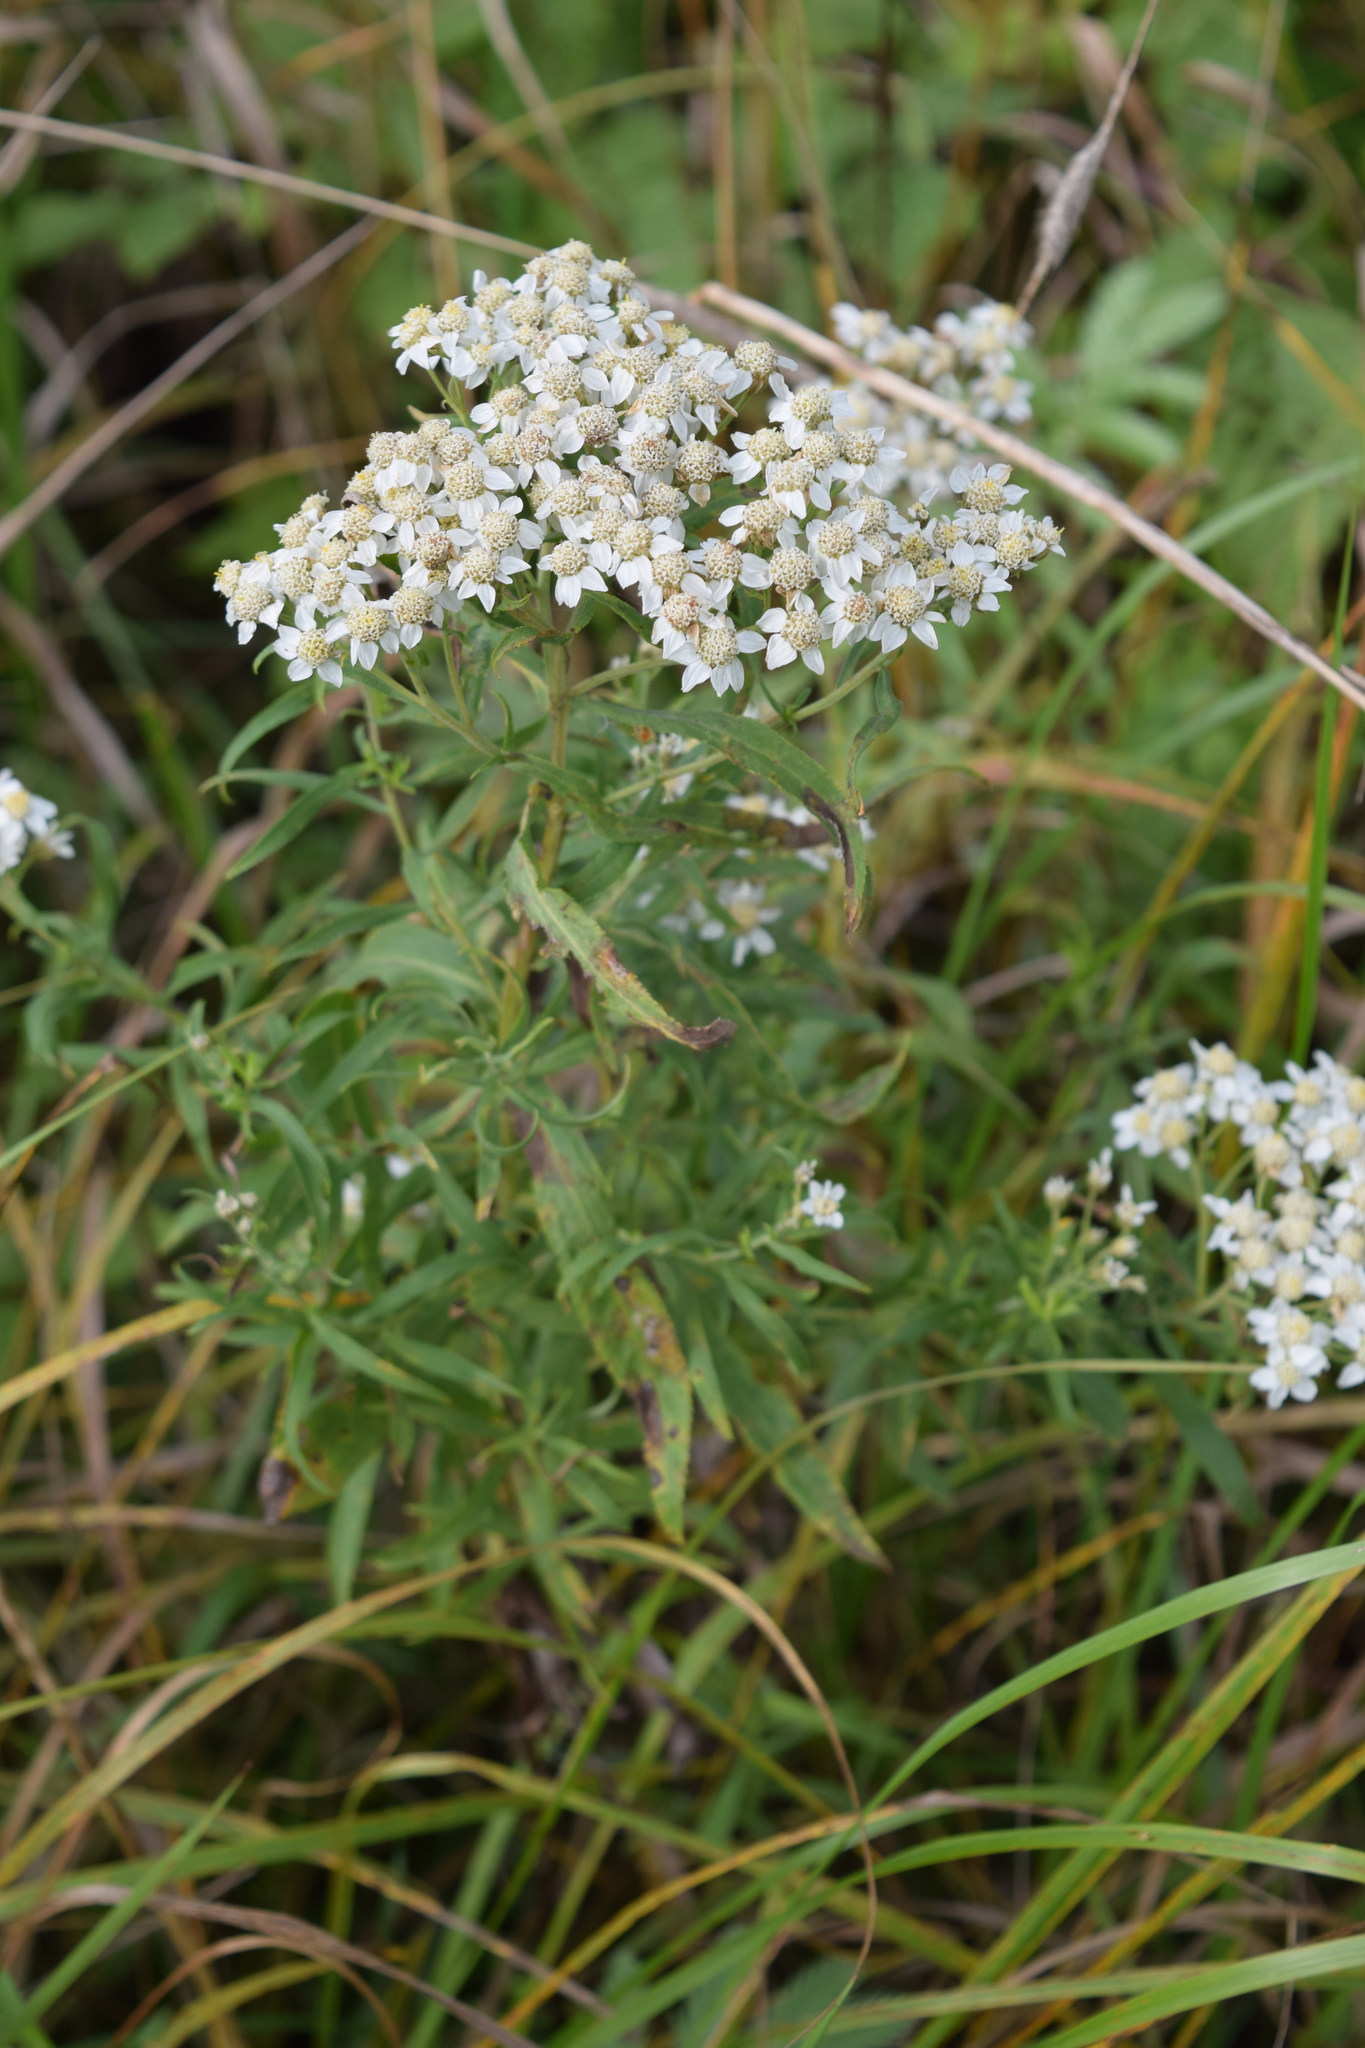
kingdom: Plantae
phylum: Tracheophyta
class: Magnoliopsida
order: Asterales
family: Asteraceae
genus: Achillea
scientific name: Achillea salicifolia
